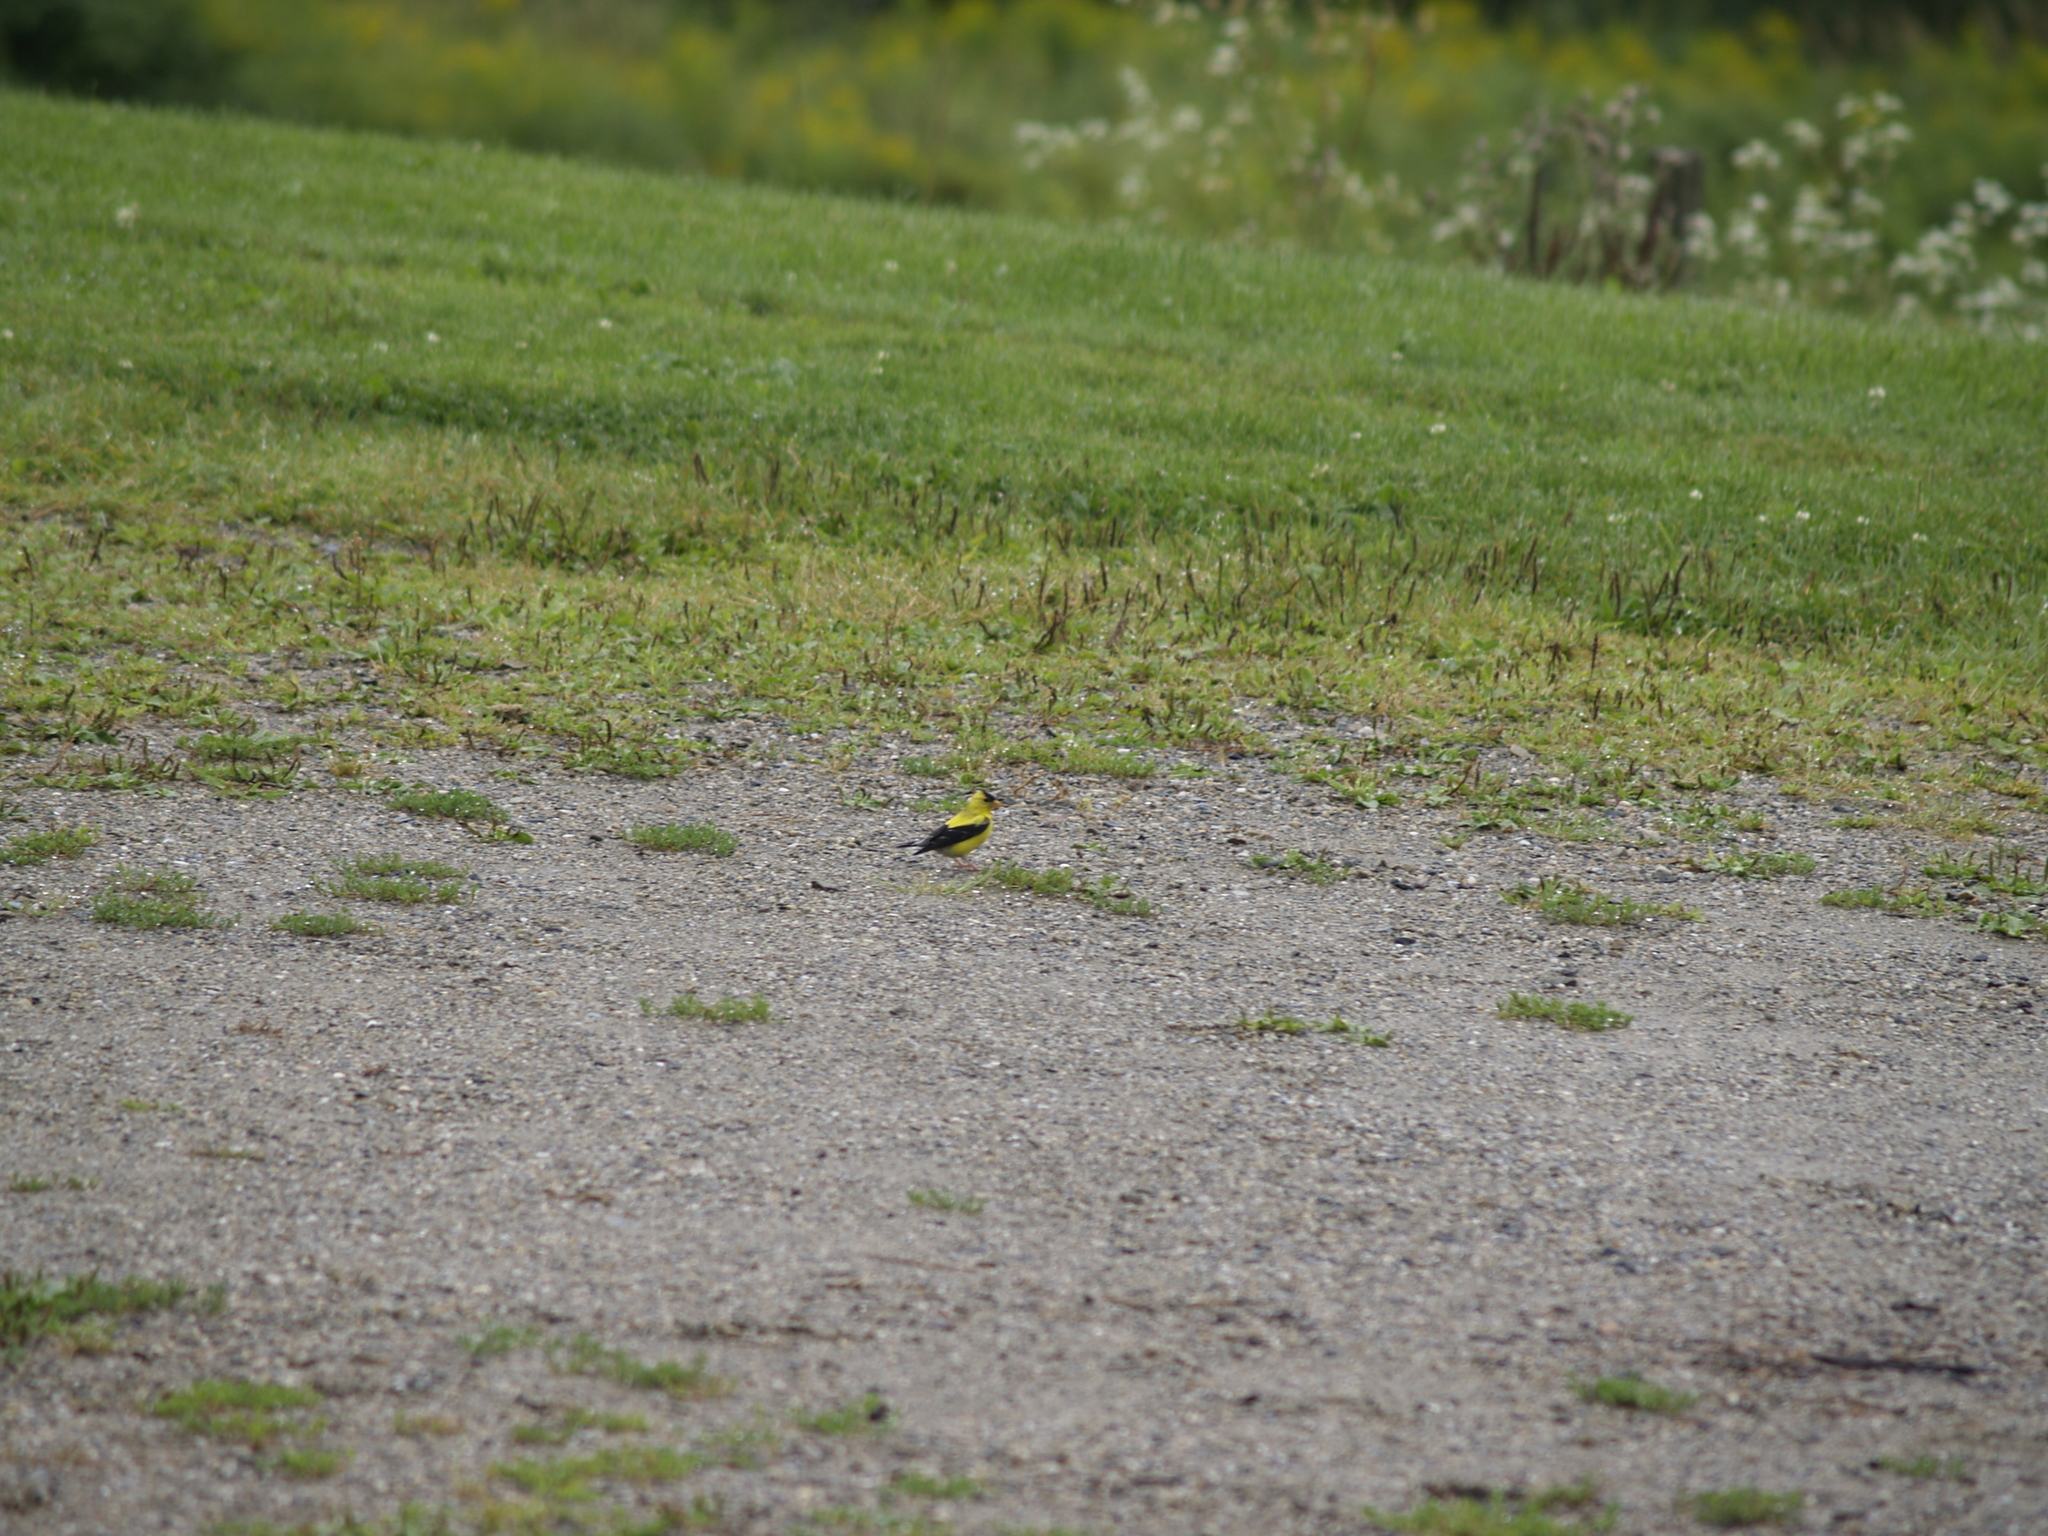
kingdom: Animalia
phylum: Chordata
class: Aves
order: Passeriformes
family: Fringillidae
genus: Spinus
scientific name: Spinus tristis
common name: American goldfinch
